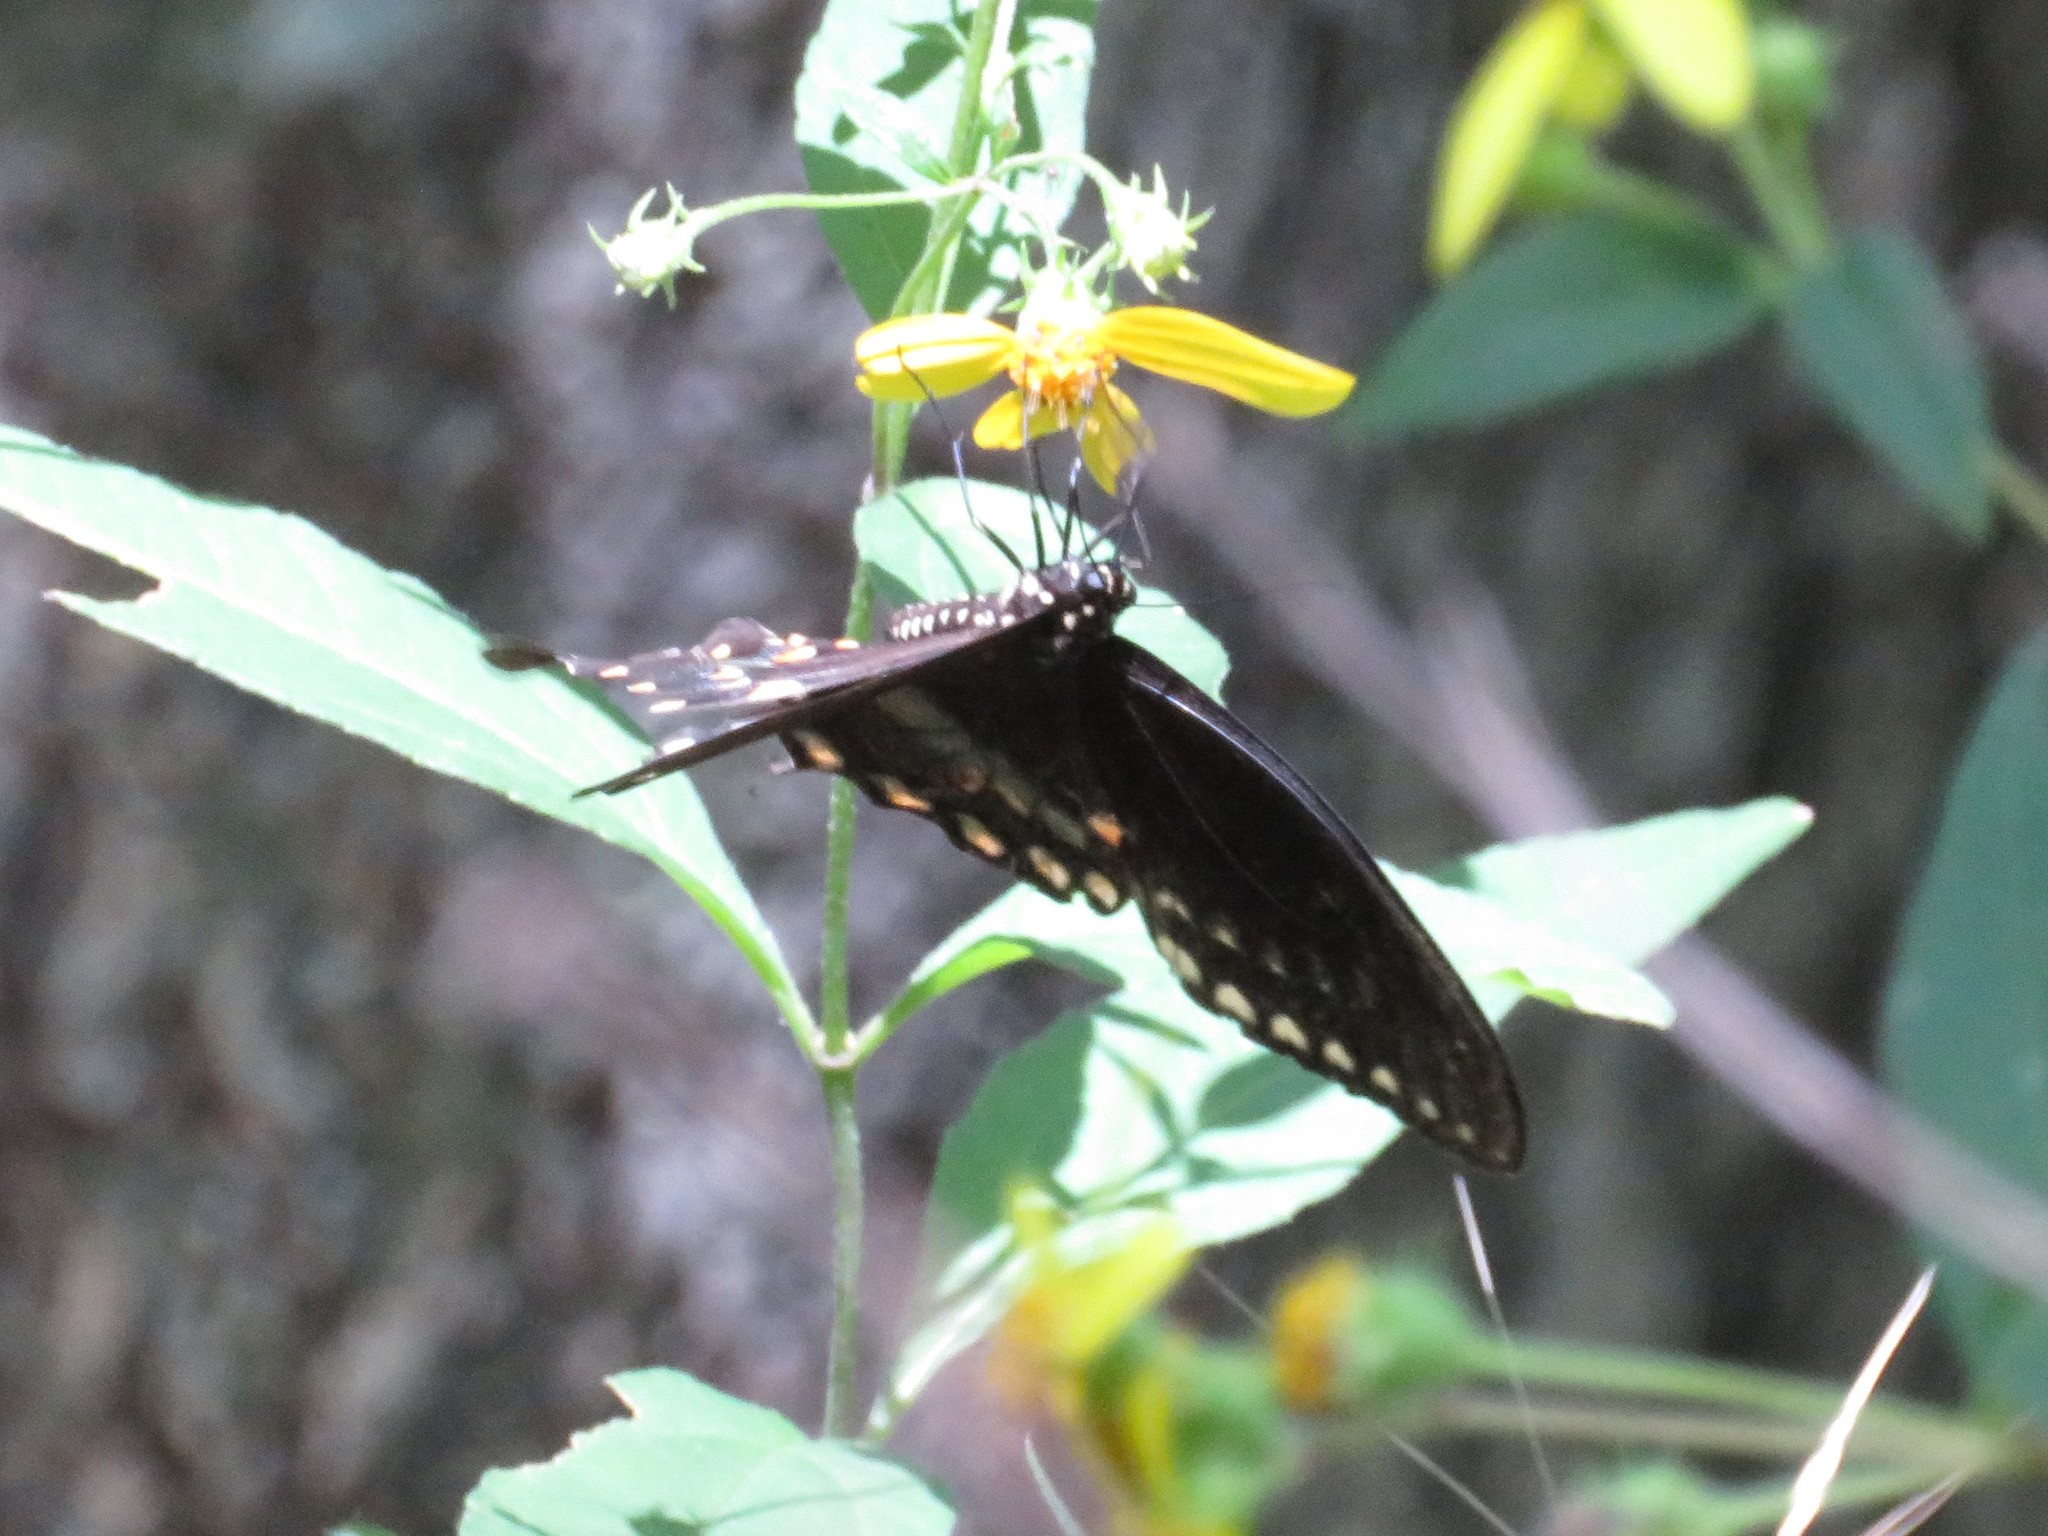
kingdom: Animalia
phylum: Arthropoda
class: Insecta
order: Lepidoptera
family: Papilionidae
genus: Papilio
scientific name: Papilio troilus
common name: Spicebush swallowtail
